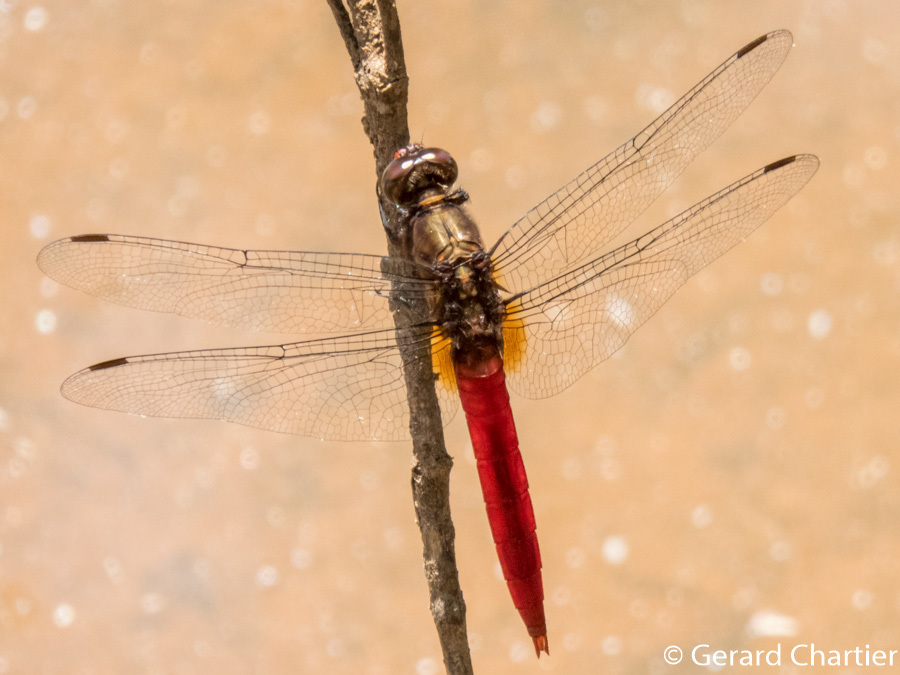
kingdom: Animalia
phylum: Arthropoda
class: Insecta
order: Odonata
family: Libellulidae
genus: Orthetrum
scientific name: Orthetrum chrysis
